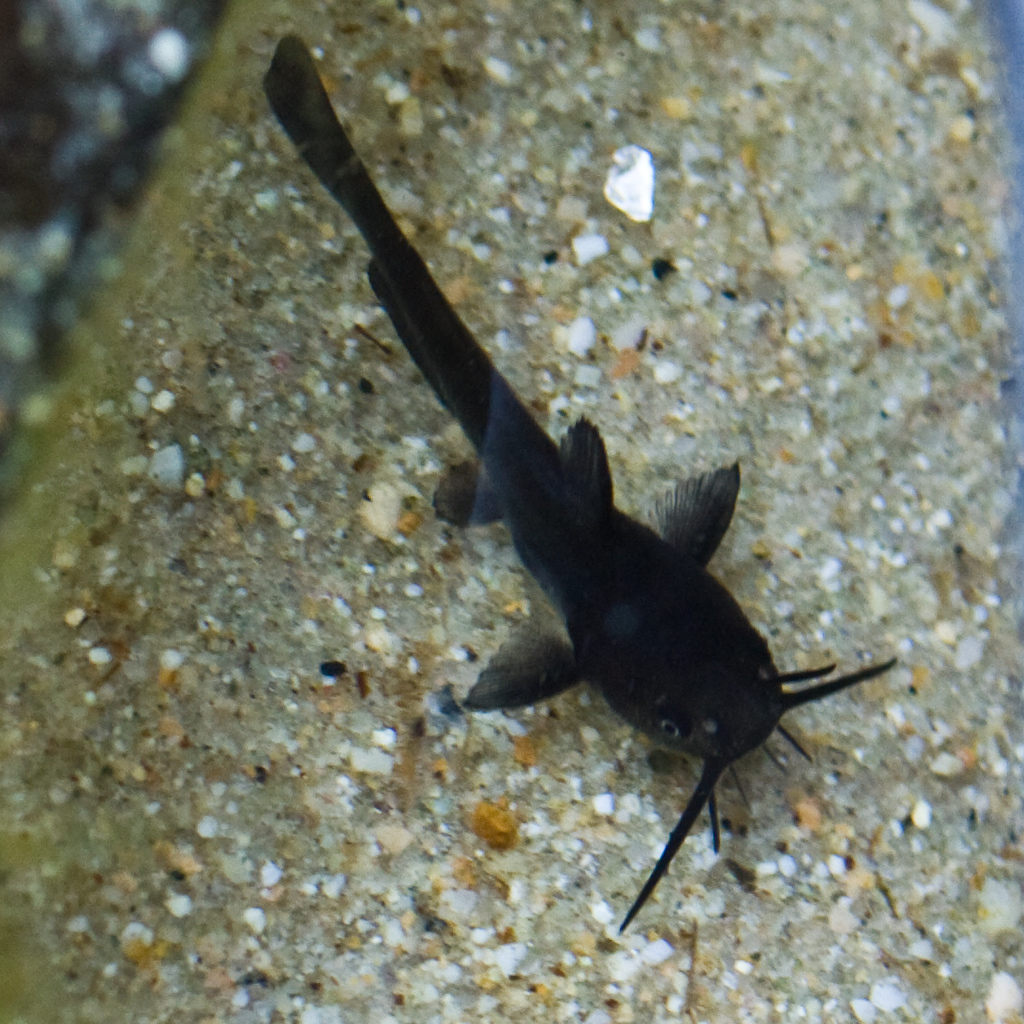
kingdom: Animalia
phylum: Chordata
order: Siluriformes
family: Ictaluridae
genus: Ameiurus
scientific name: Ameiurus nebulosus
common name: Brown bullhead
